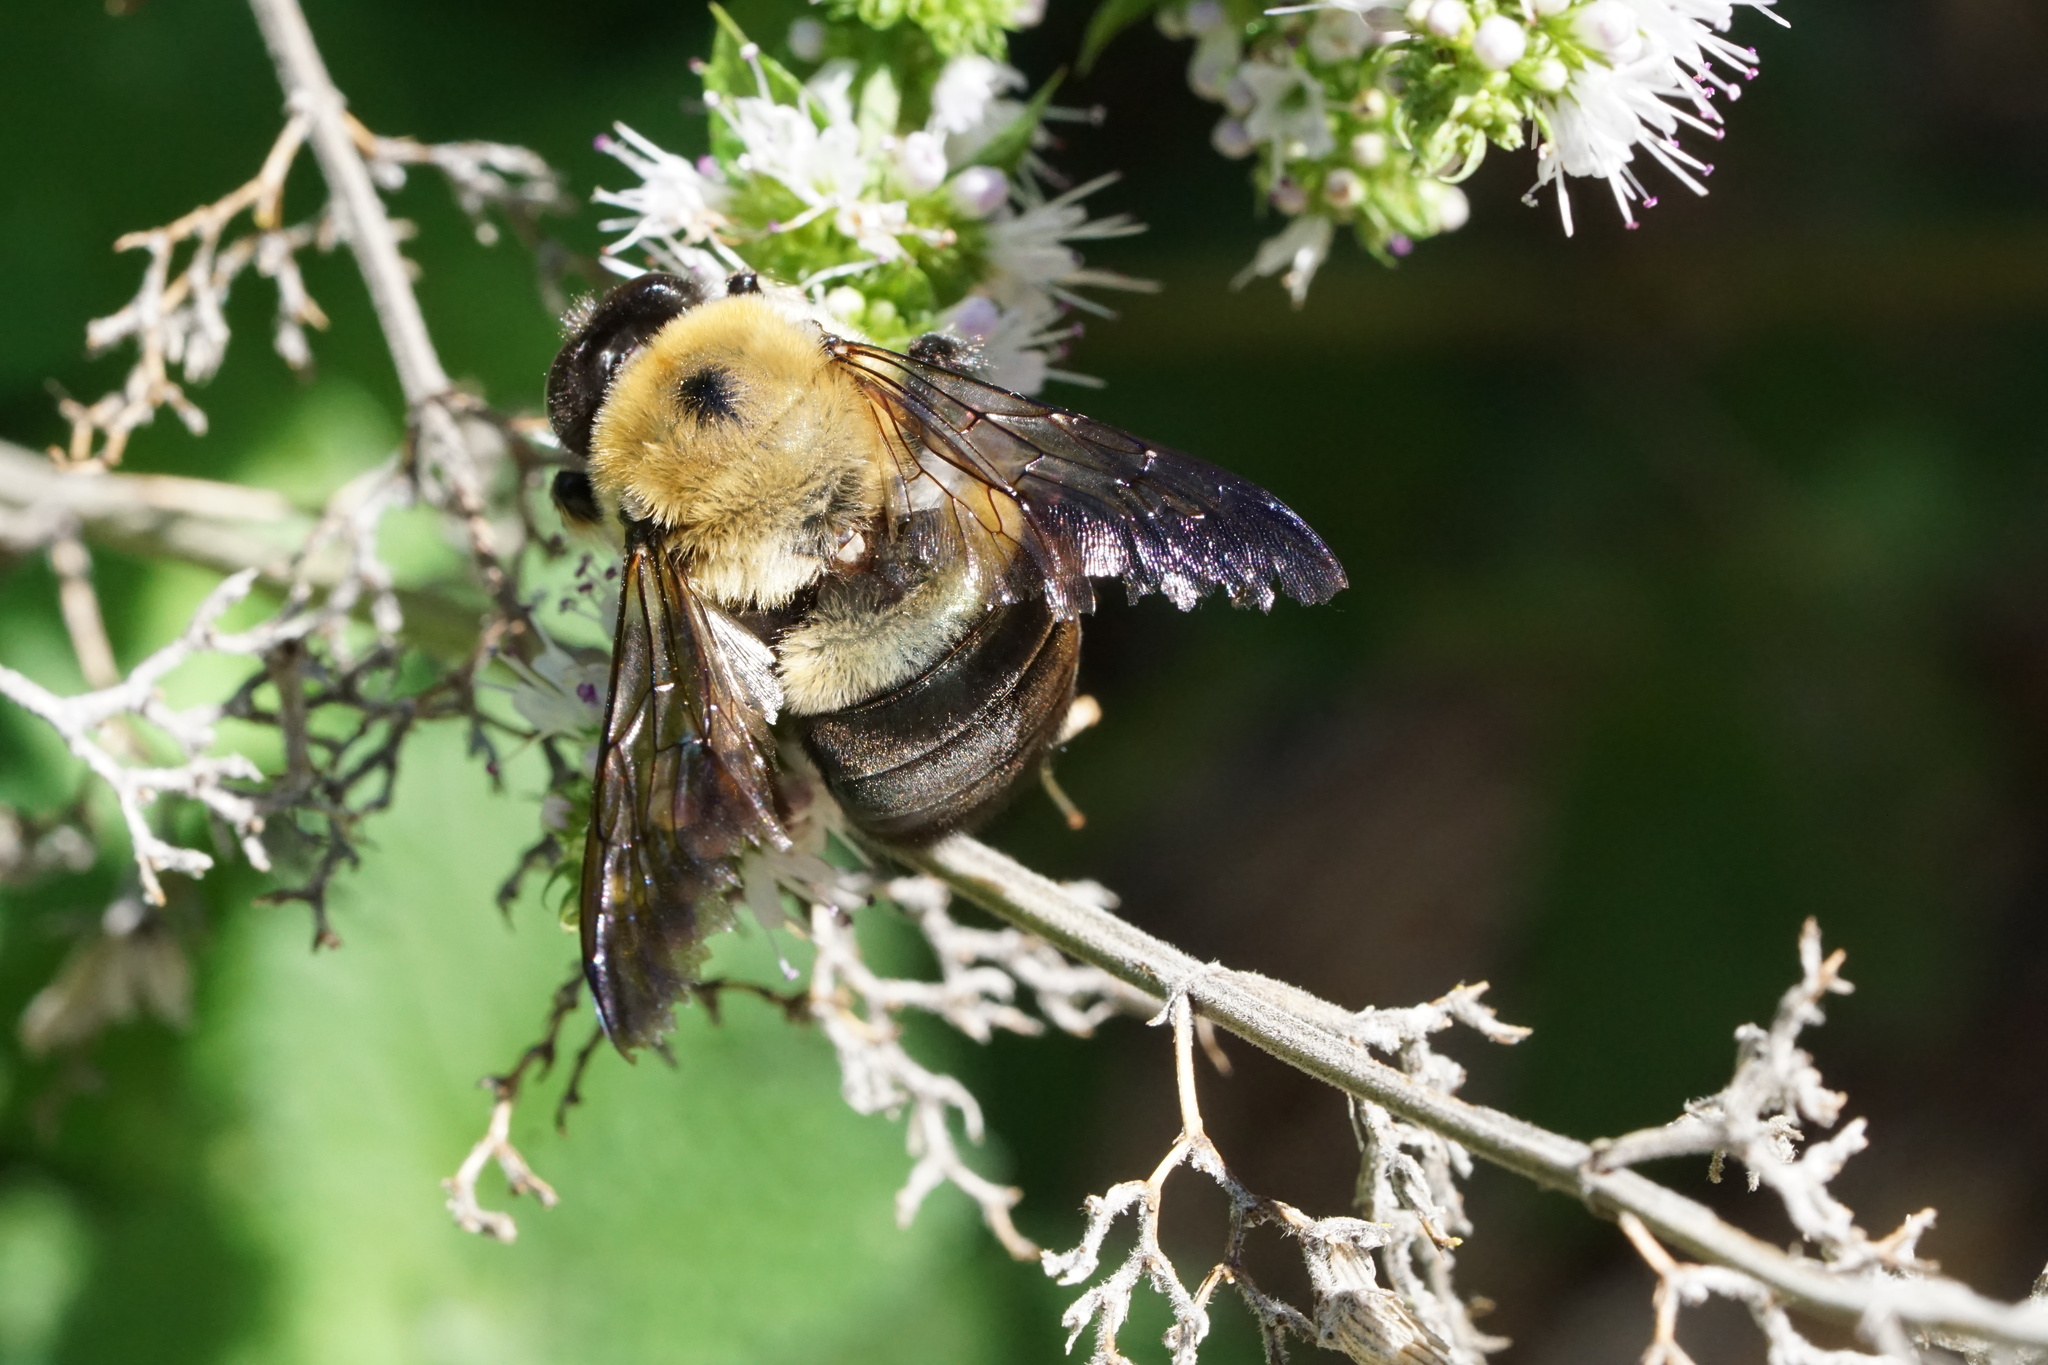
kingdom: Animalia
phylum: Arthropoda
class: Insecta
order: Hymenoptera
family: Apidae
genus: Xylocopa
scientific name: Xylocopa virginica
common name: Carpenter bee
